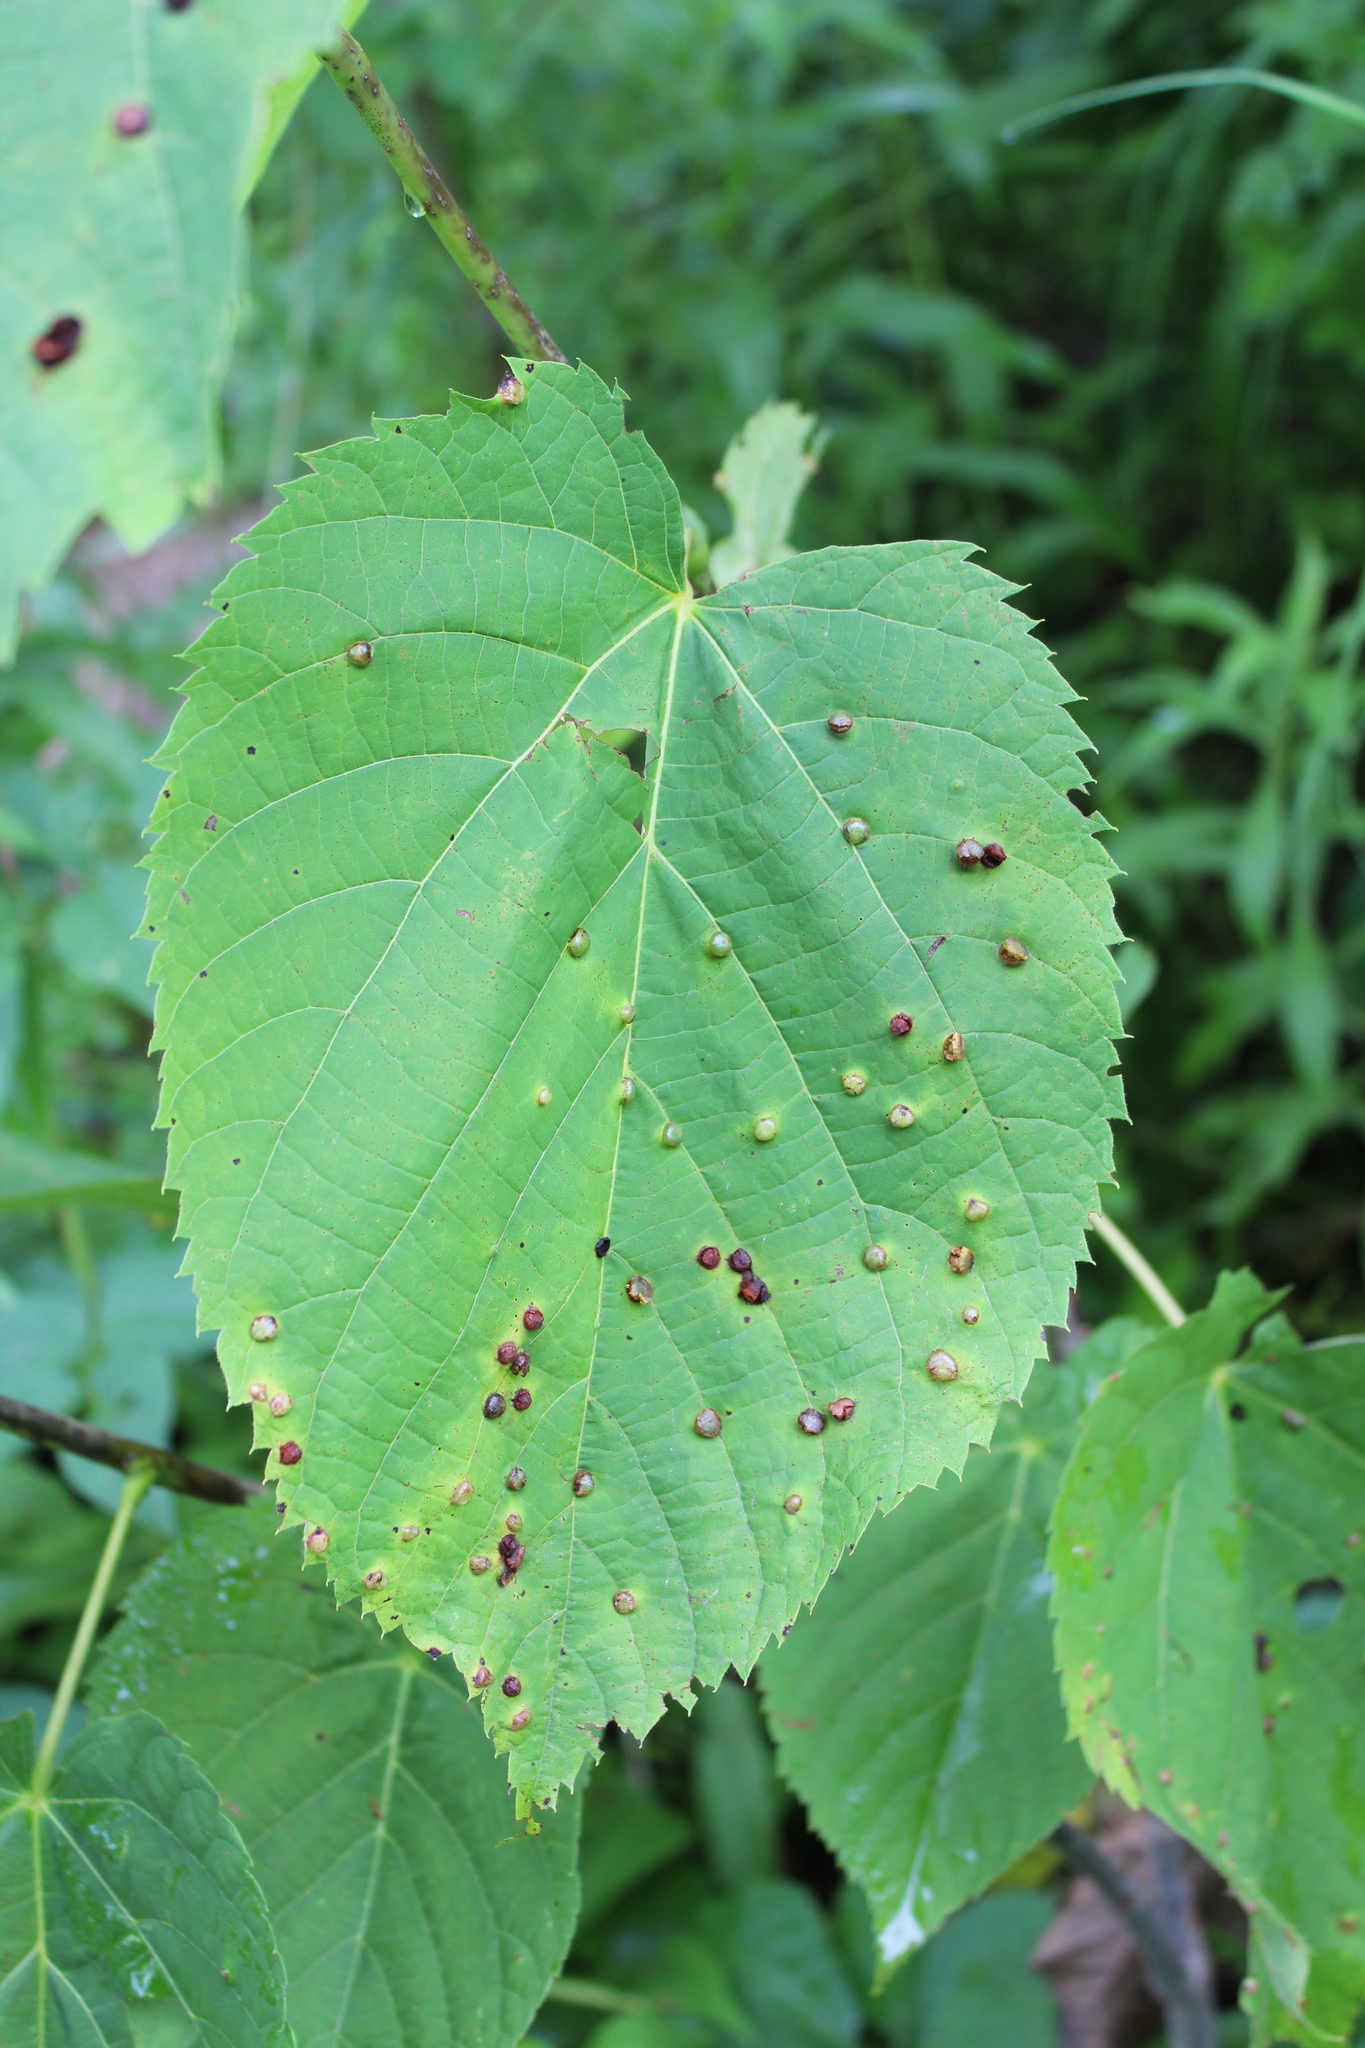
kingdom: Plantae
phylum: Tracheophyta
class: Magnoliopsida
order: Malvales
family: Malvaceae
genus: Tilia
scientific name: Tilia americana
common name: Basswood
